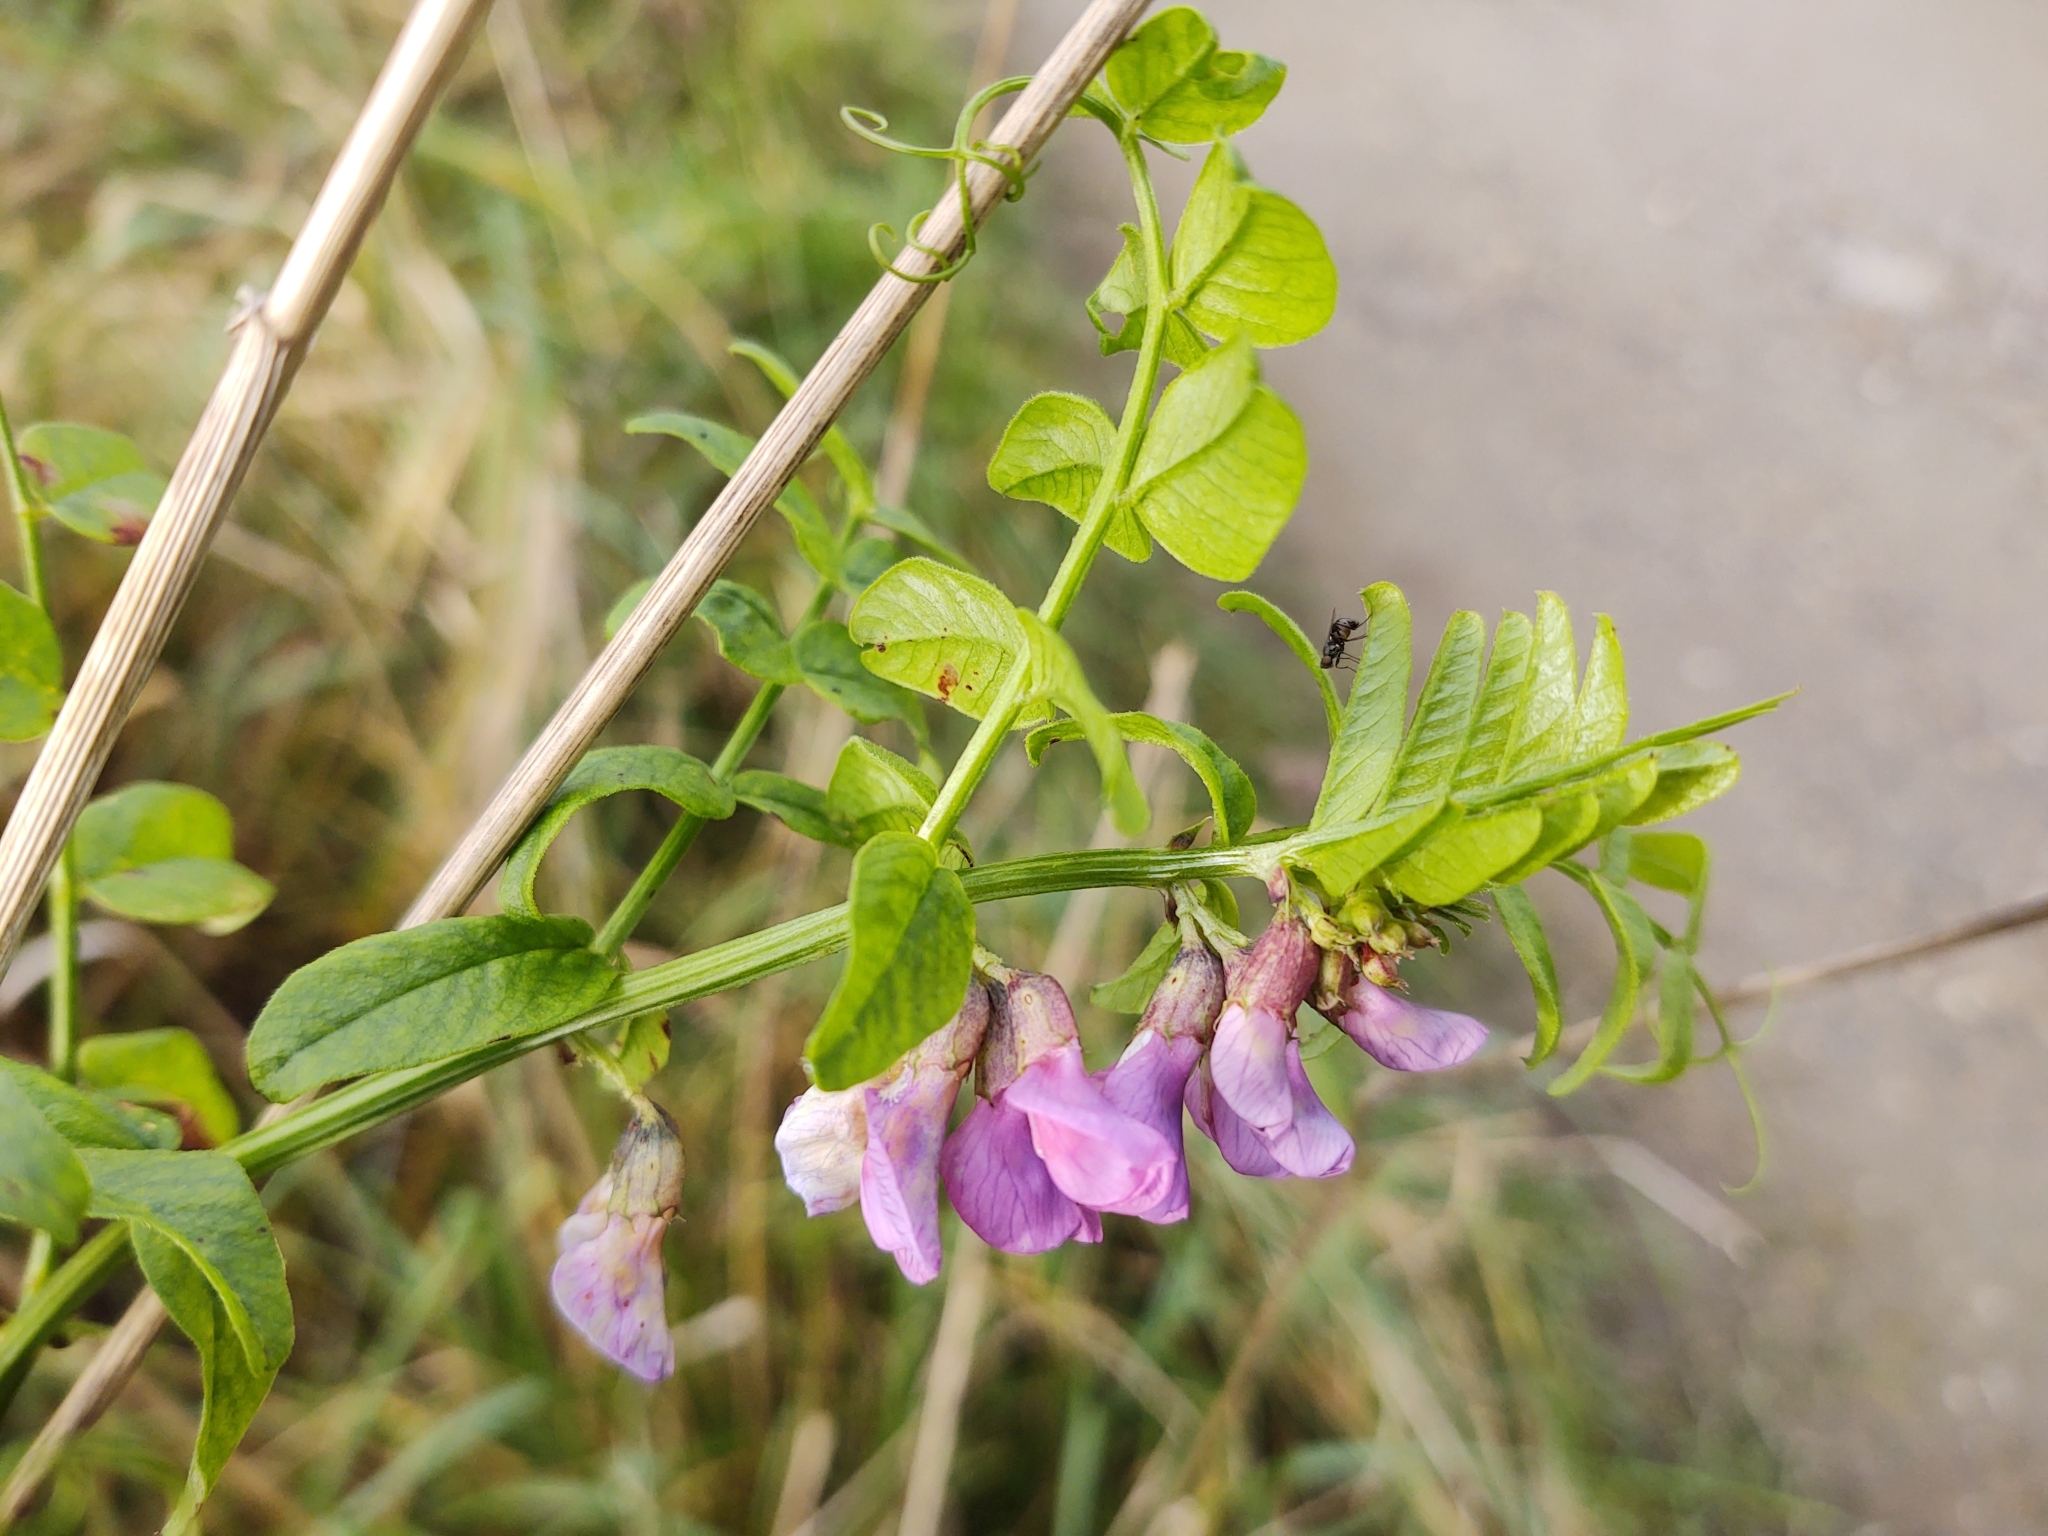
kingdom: Plantae
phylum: Tracheophyta
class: Magnoliopsida
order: Fabales
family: Fabaceae
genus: Vicia
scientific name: Vicia sepium
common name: Bush vetch
